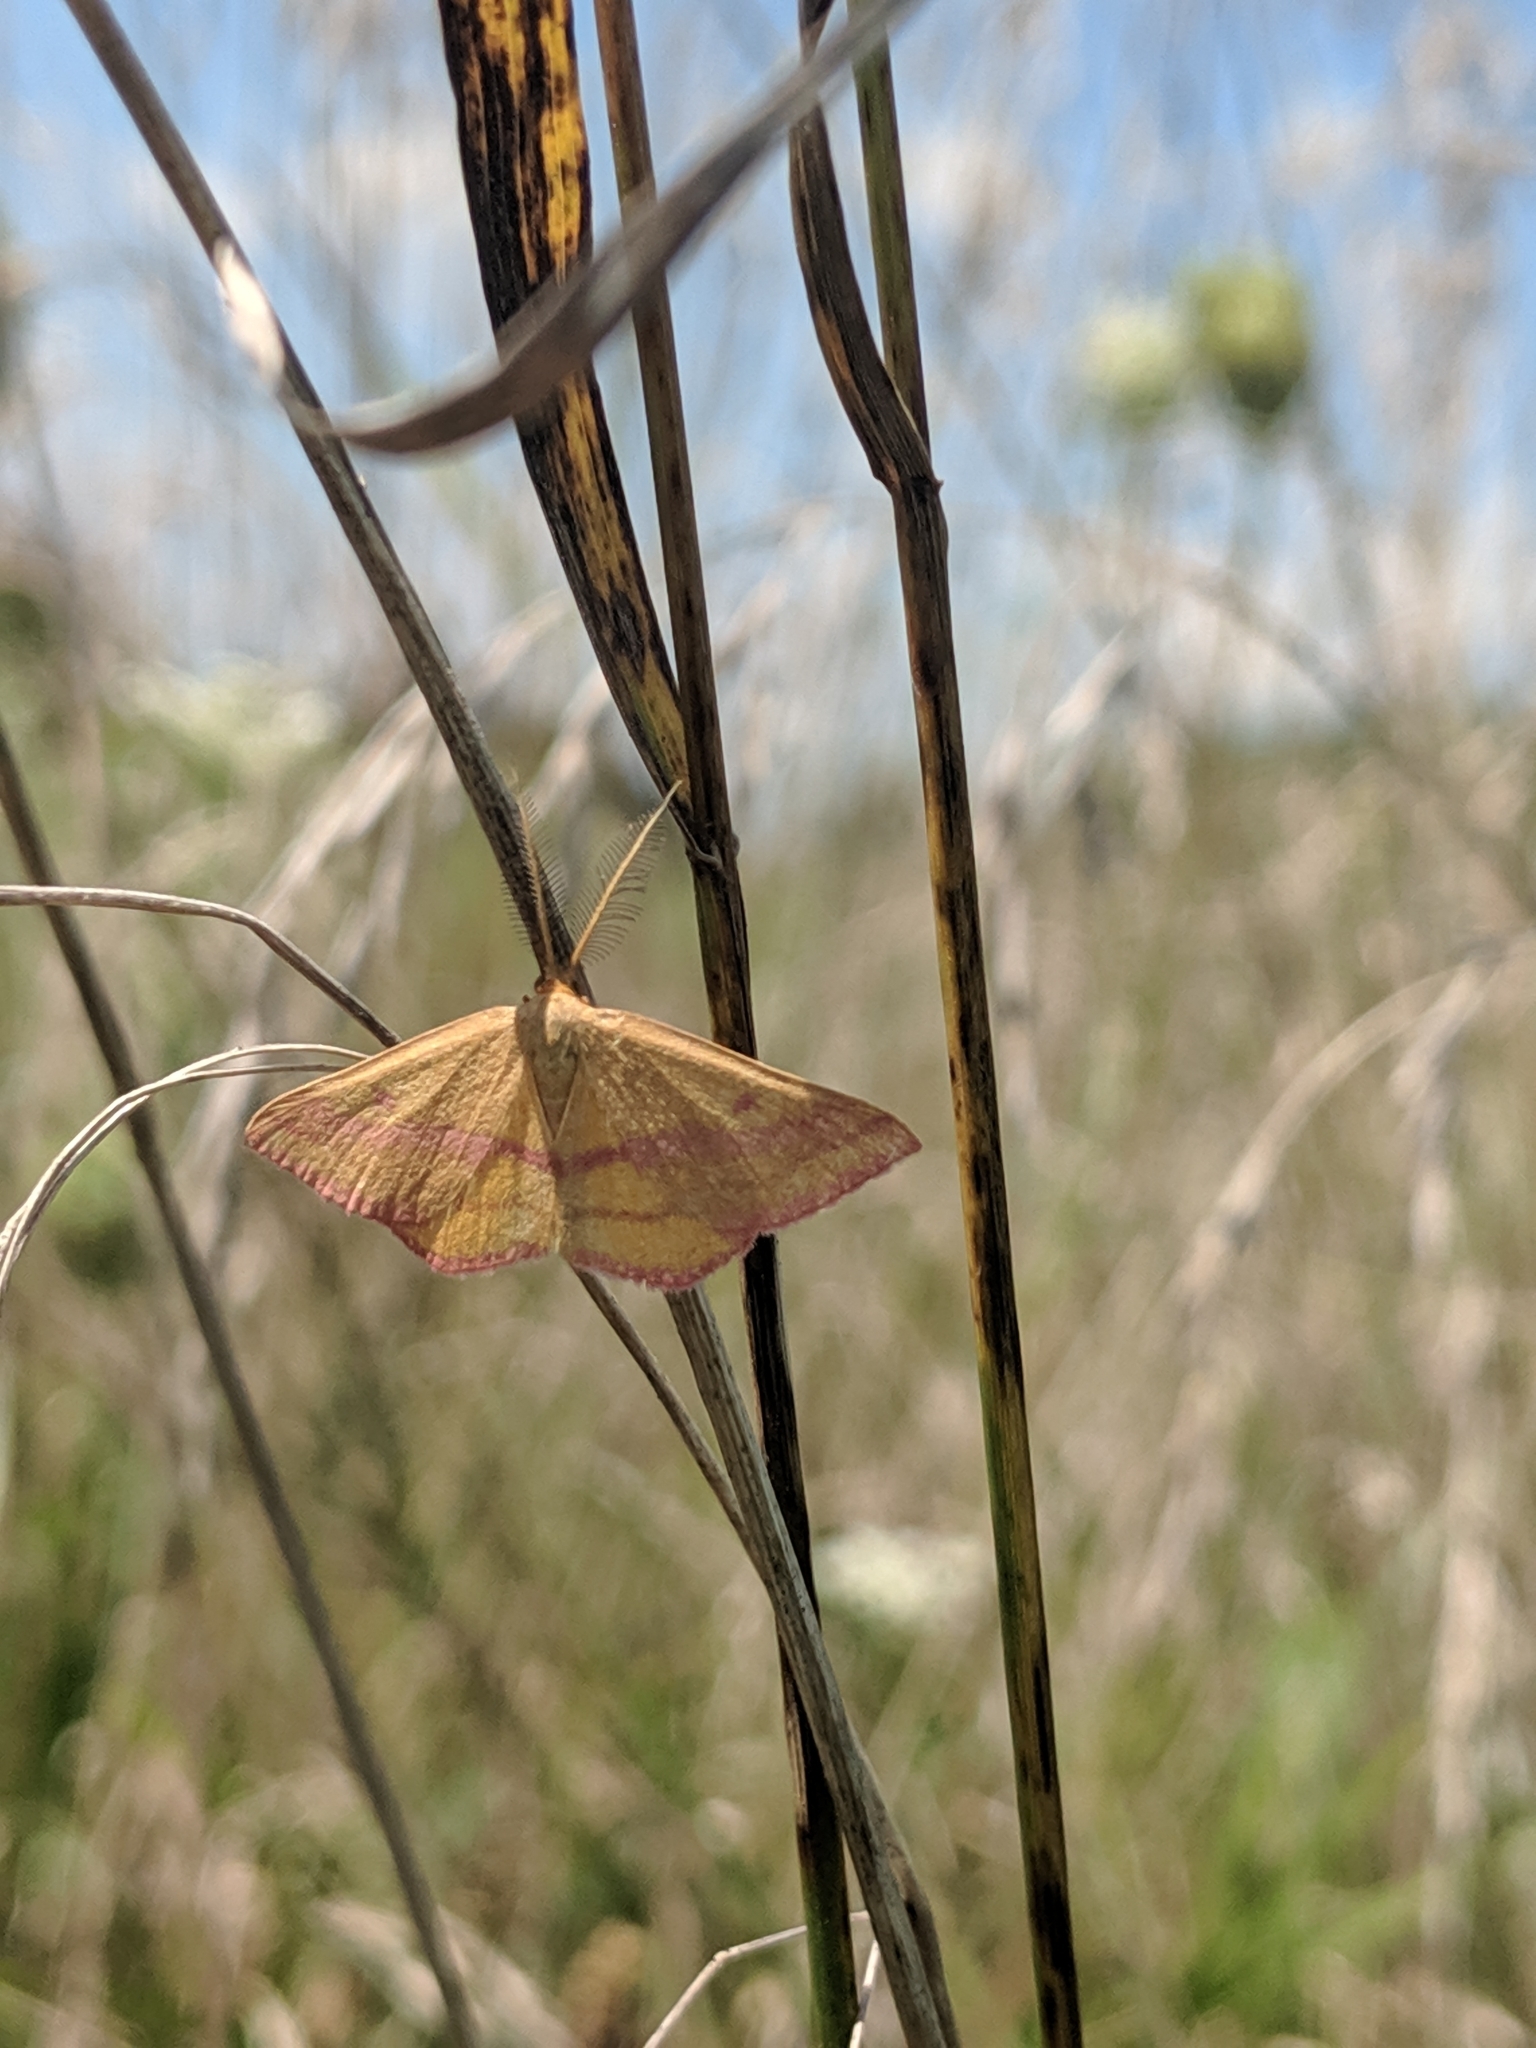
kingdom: Animalia
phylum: Arthropoda
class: Insecta
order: Lepidoptera
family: Geometridae
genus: Haematopis
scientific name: Haematopis grataria
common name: Chickweed geometer
